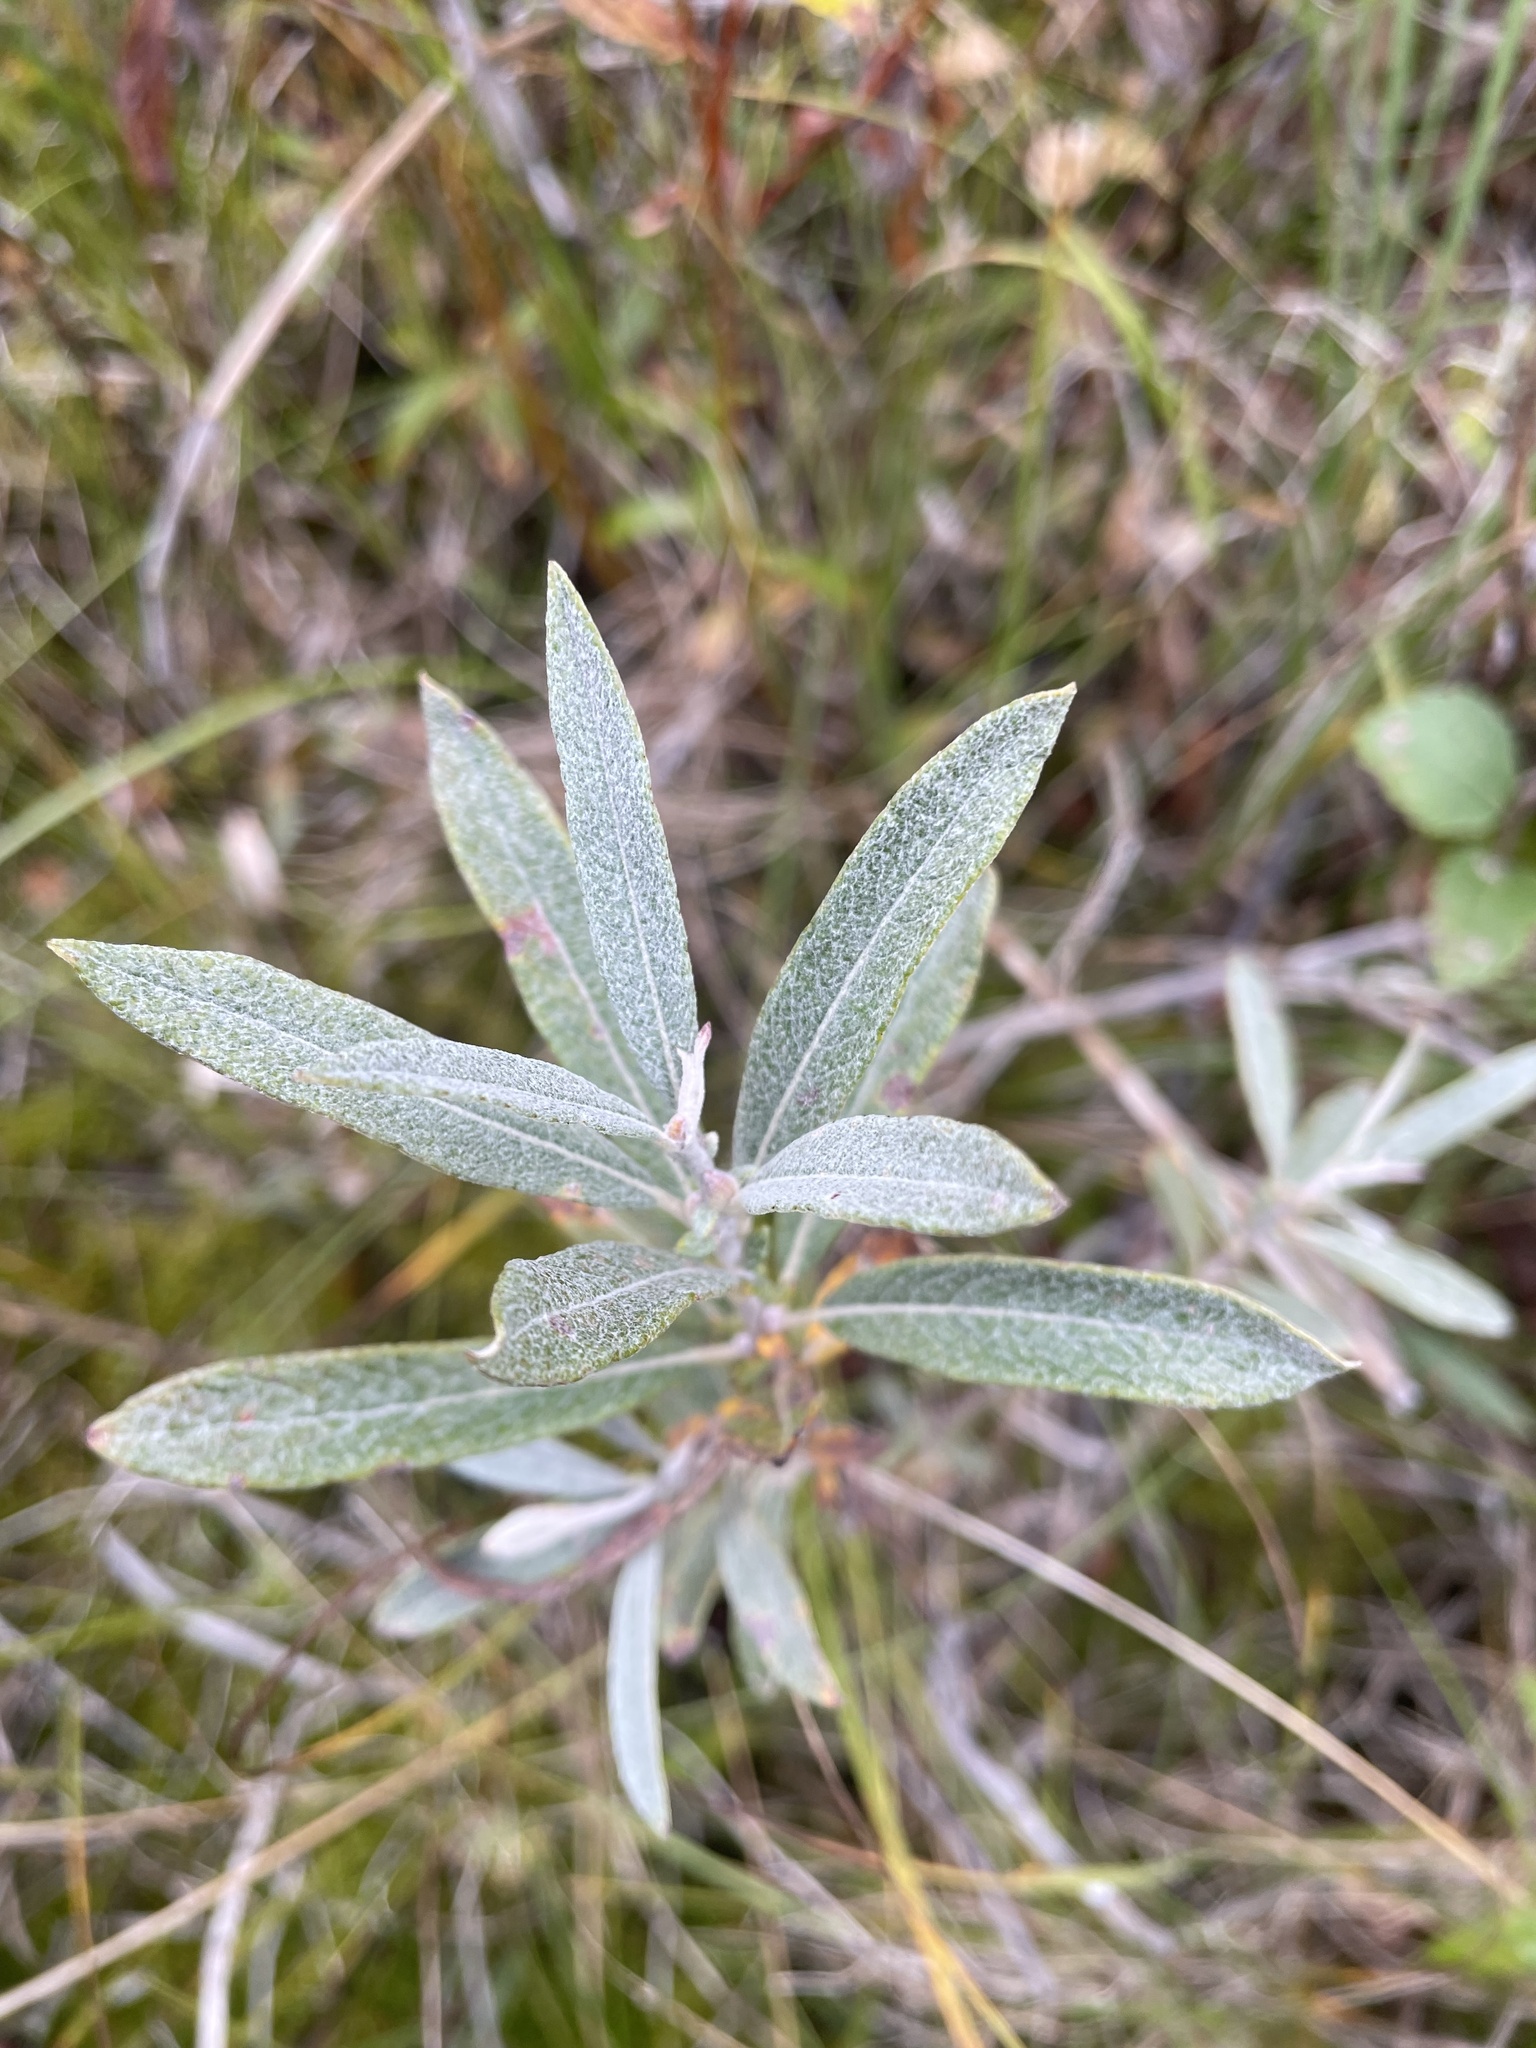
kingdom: Plantae
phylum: Tracheophyta
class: Magnoliopsida
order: Malpighiales
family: Salicaceae
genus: Salix
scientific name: Salix candida
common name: Hoary willow
